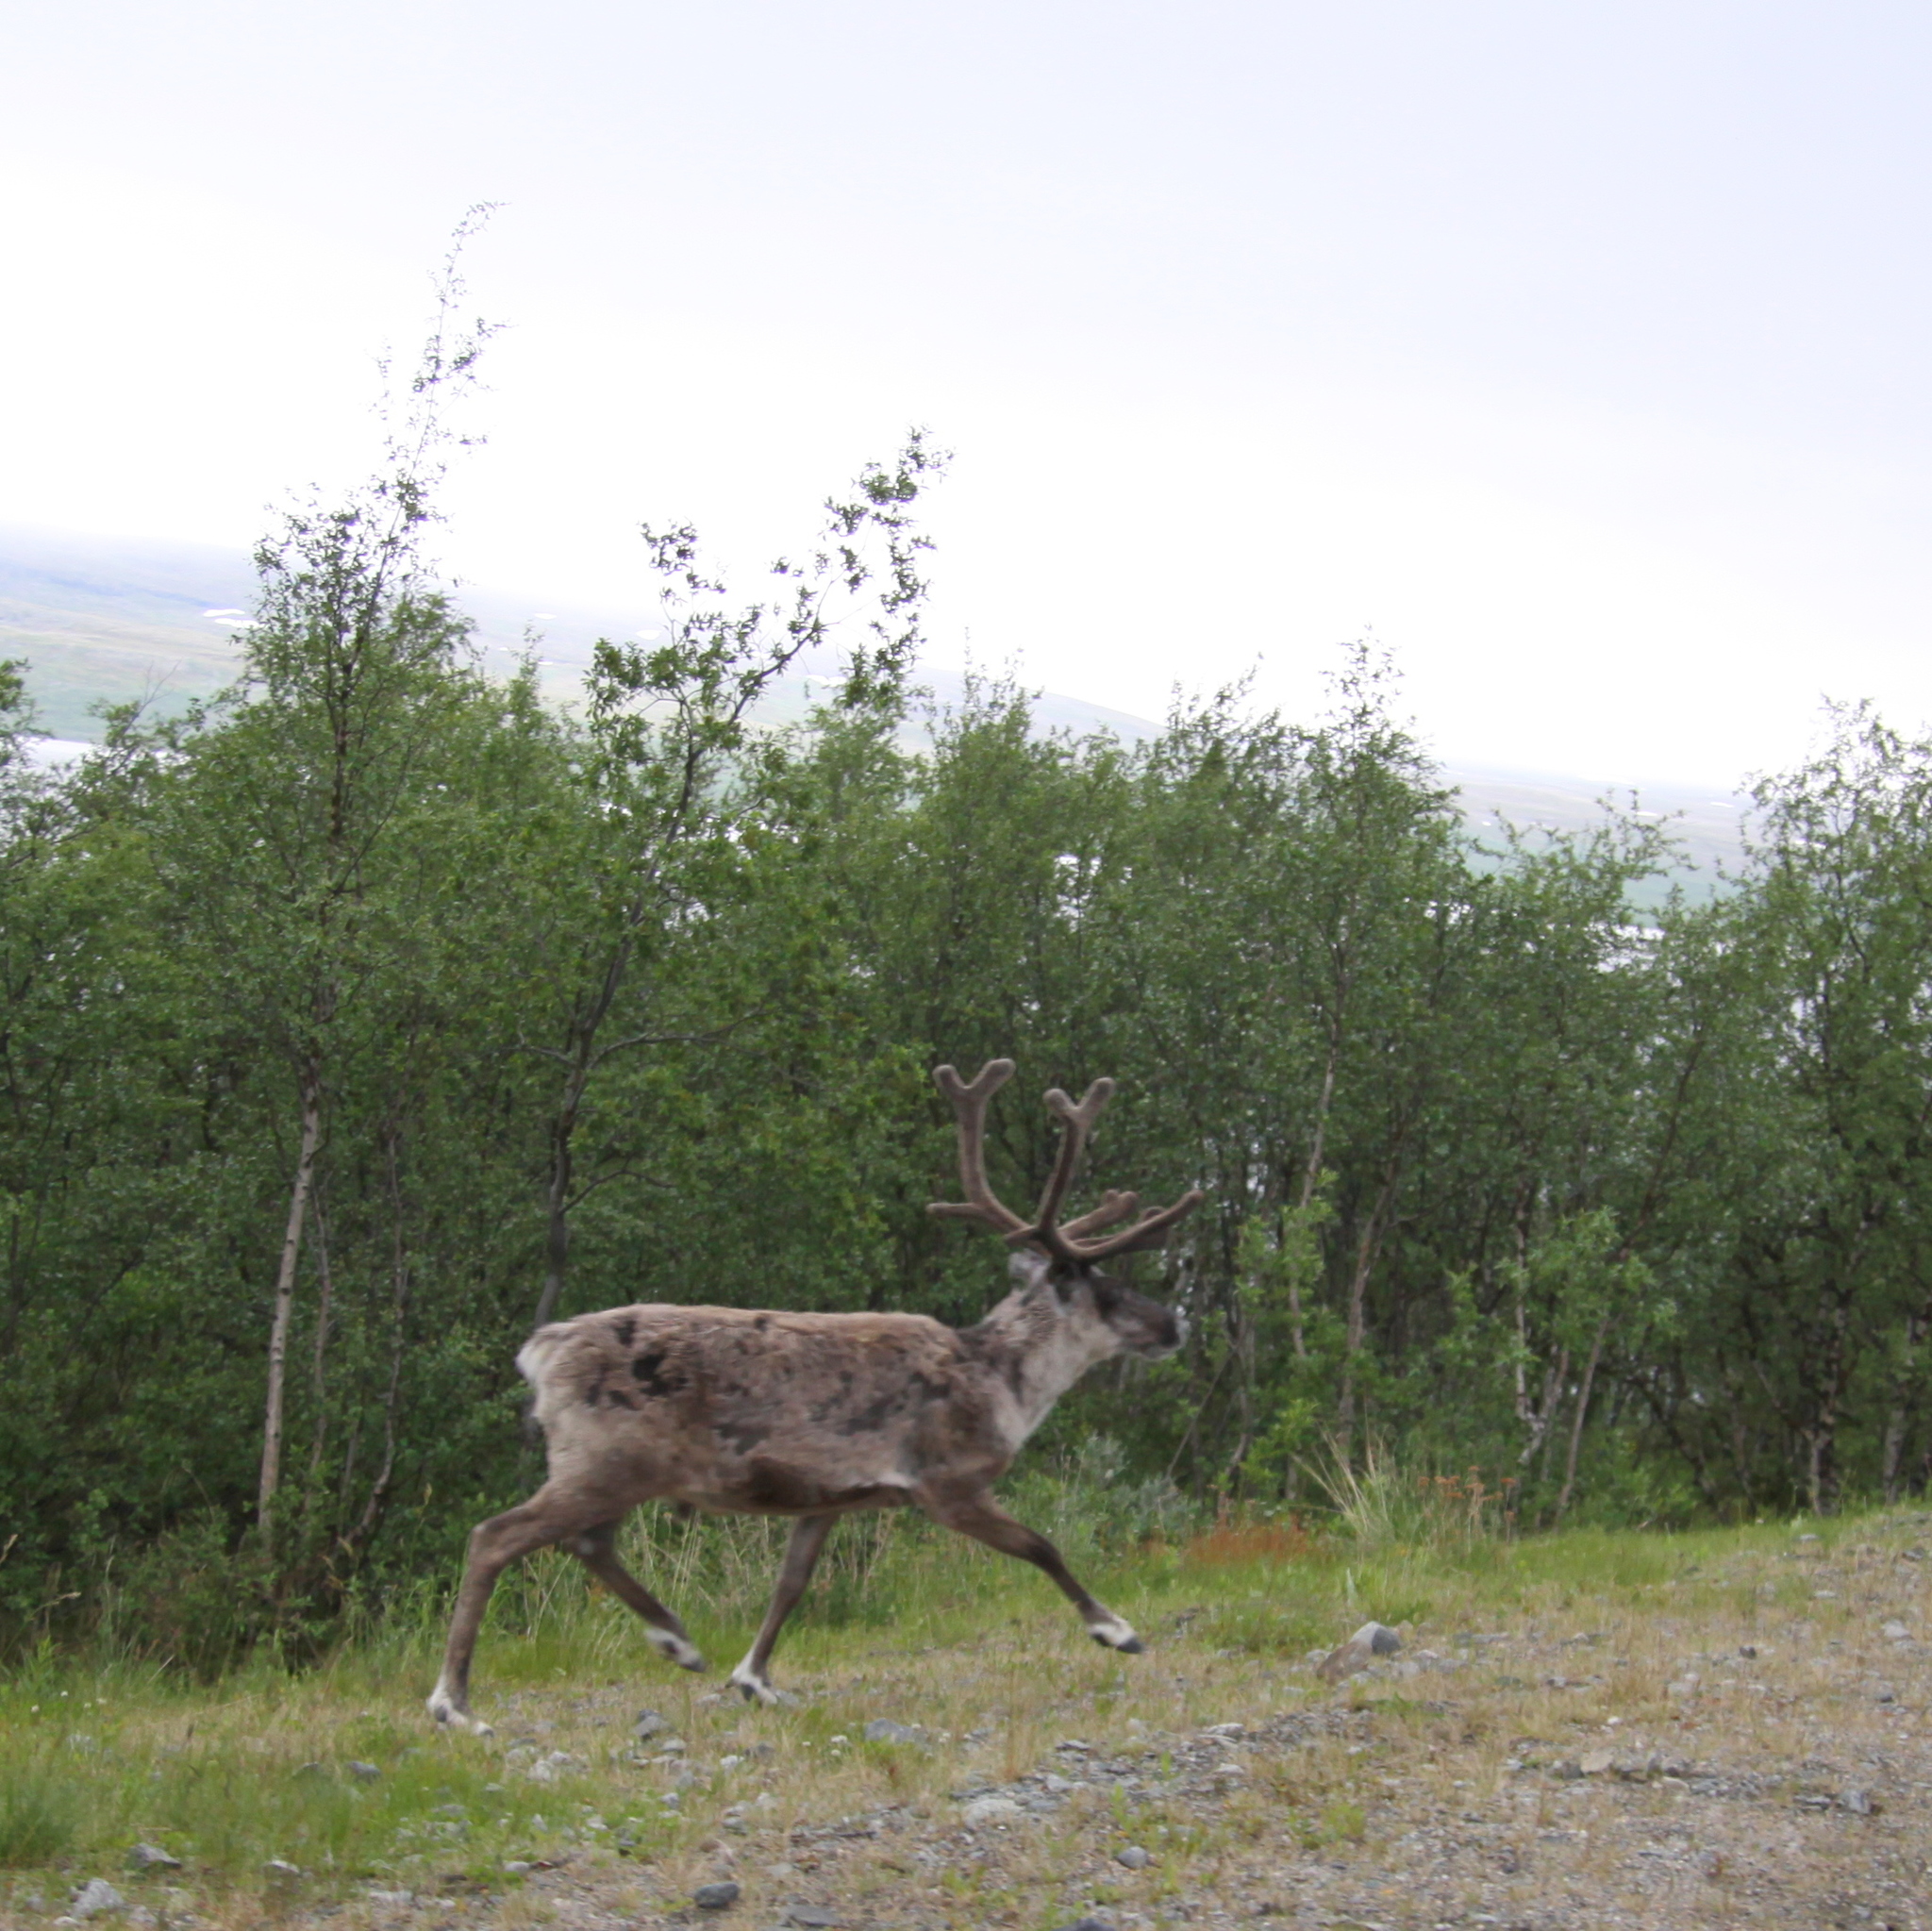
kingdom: Animalia
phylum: Chordata
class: Mammalia
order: Artiodactyla
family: Cervidae
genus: Rangifer
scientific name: Rangifer tarandus
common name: Reindeer
